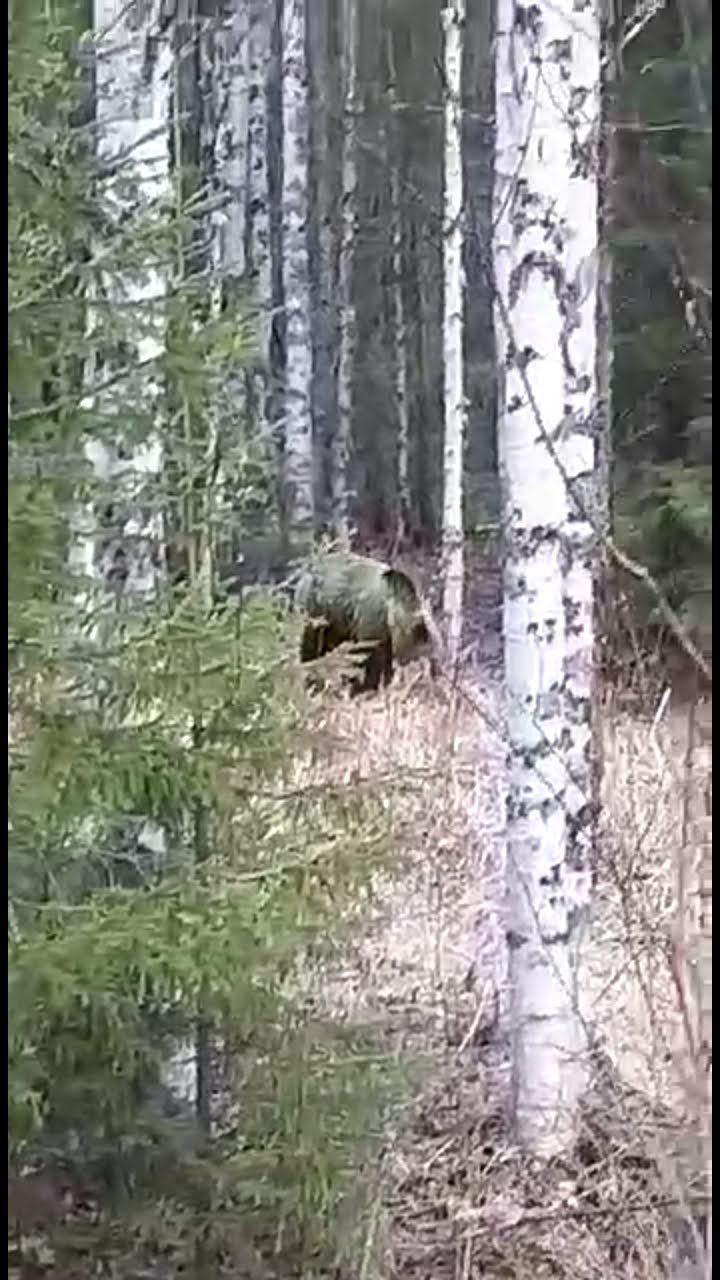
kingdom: Animalia
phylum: Chordata
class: Mammalia
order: Carnivora
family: Ursidae
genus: Ursus
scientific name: Ursus arctos
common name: Brown bear
